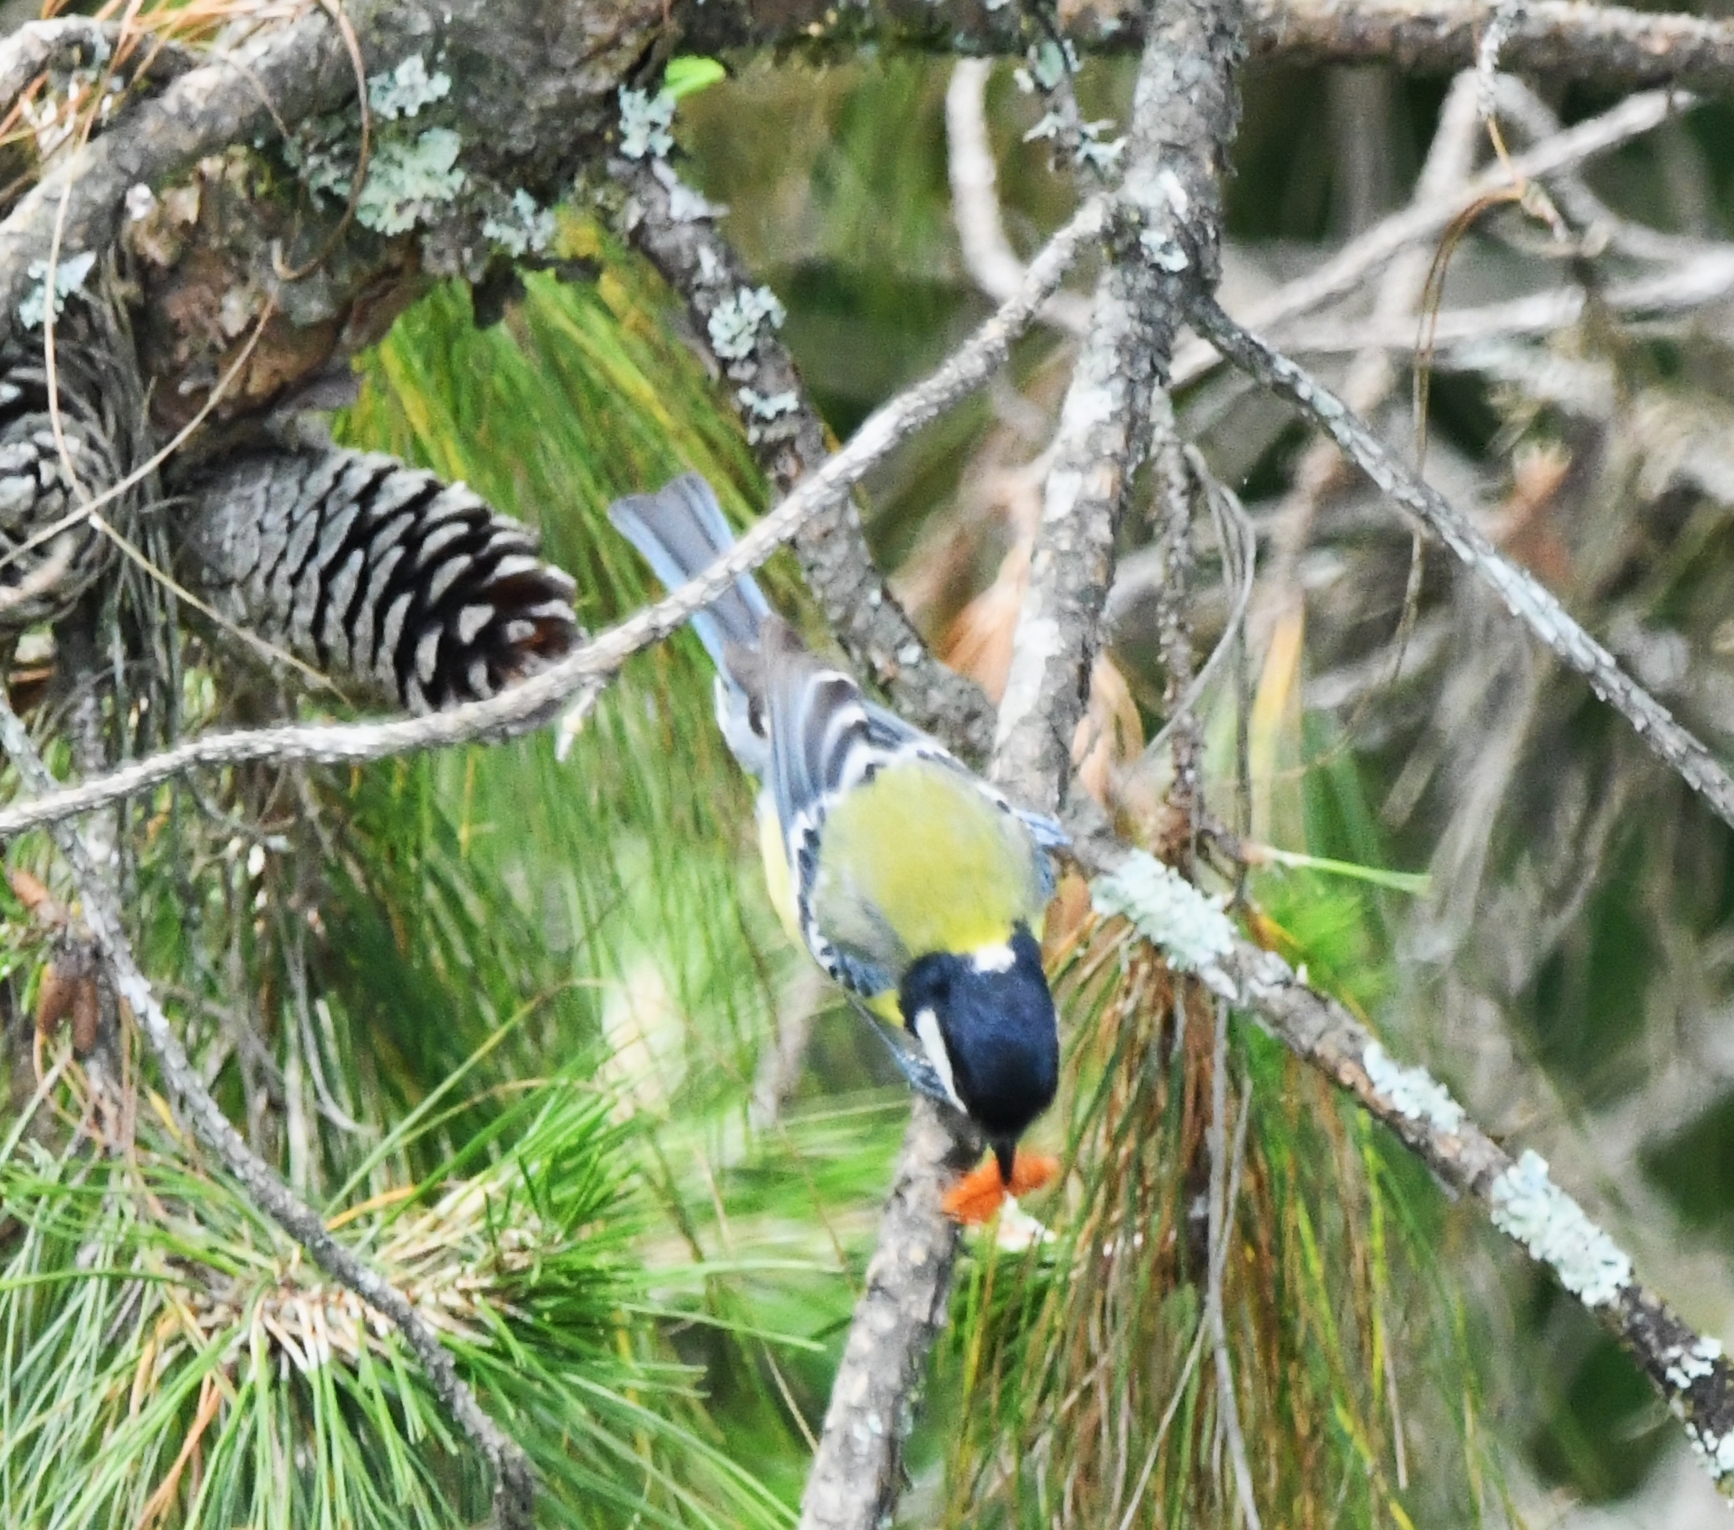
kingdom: Animalia
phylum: Chordata
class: Aves
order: Passeriformes
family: Paridae
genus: Parus
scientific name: Parus monticolus
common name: Green-backed tit
